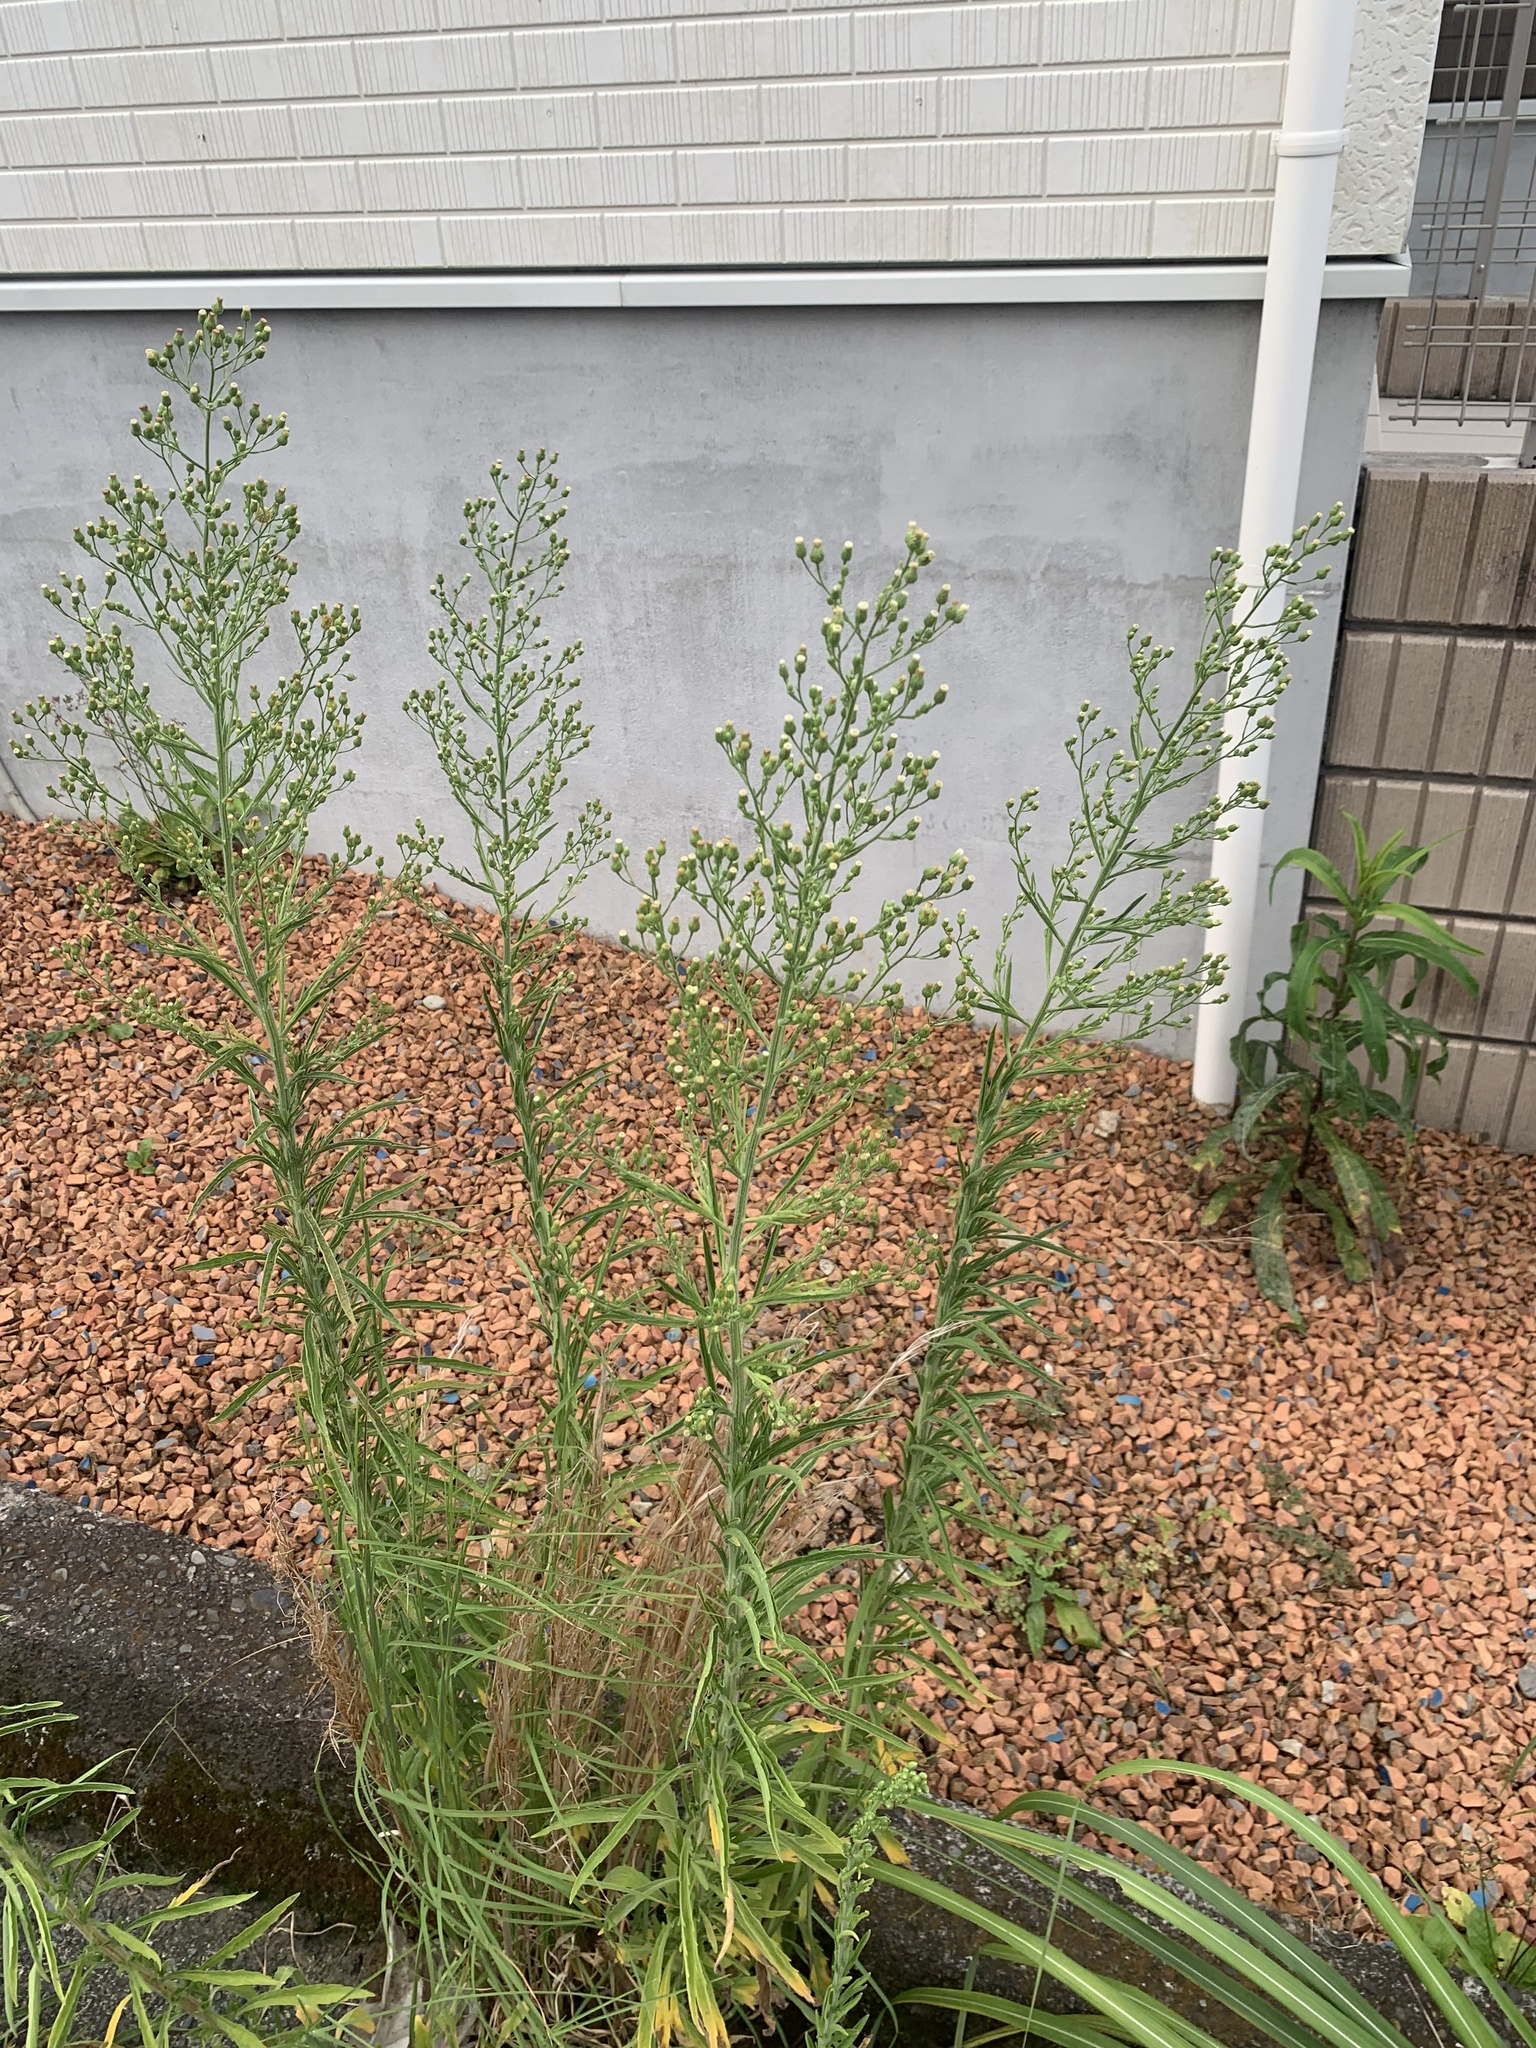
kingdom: Plantae
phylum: Tracheophyta
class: Magnoliopsida
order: Asterales
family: Asteraceae
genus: Erigeron
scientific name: Erigeron sumatrensis
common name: Daisy
